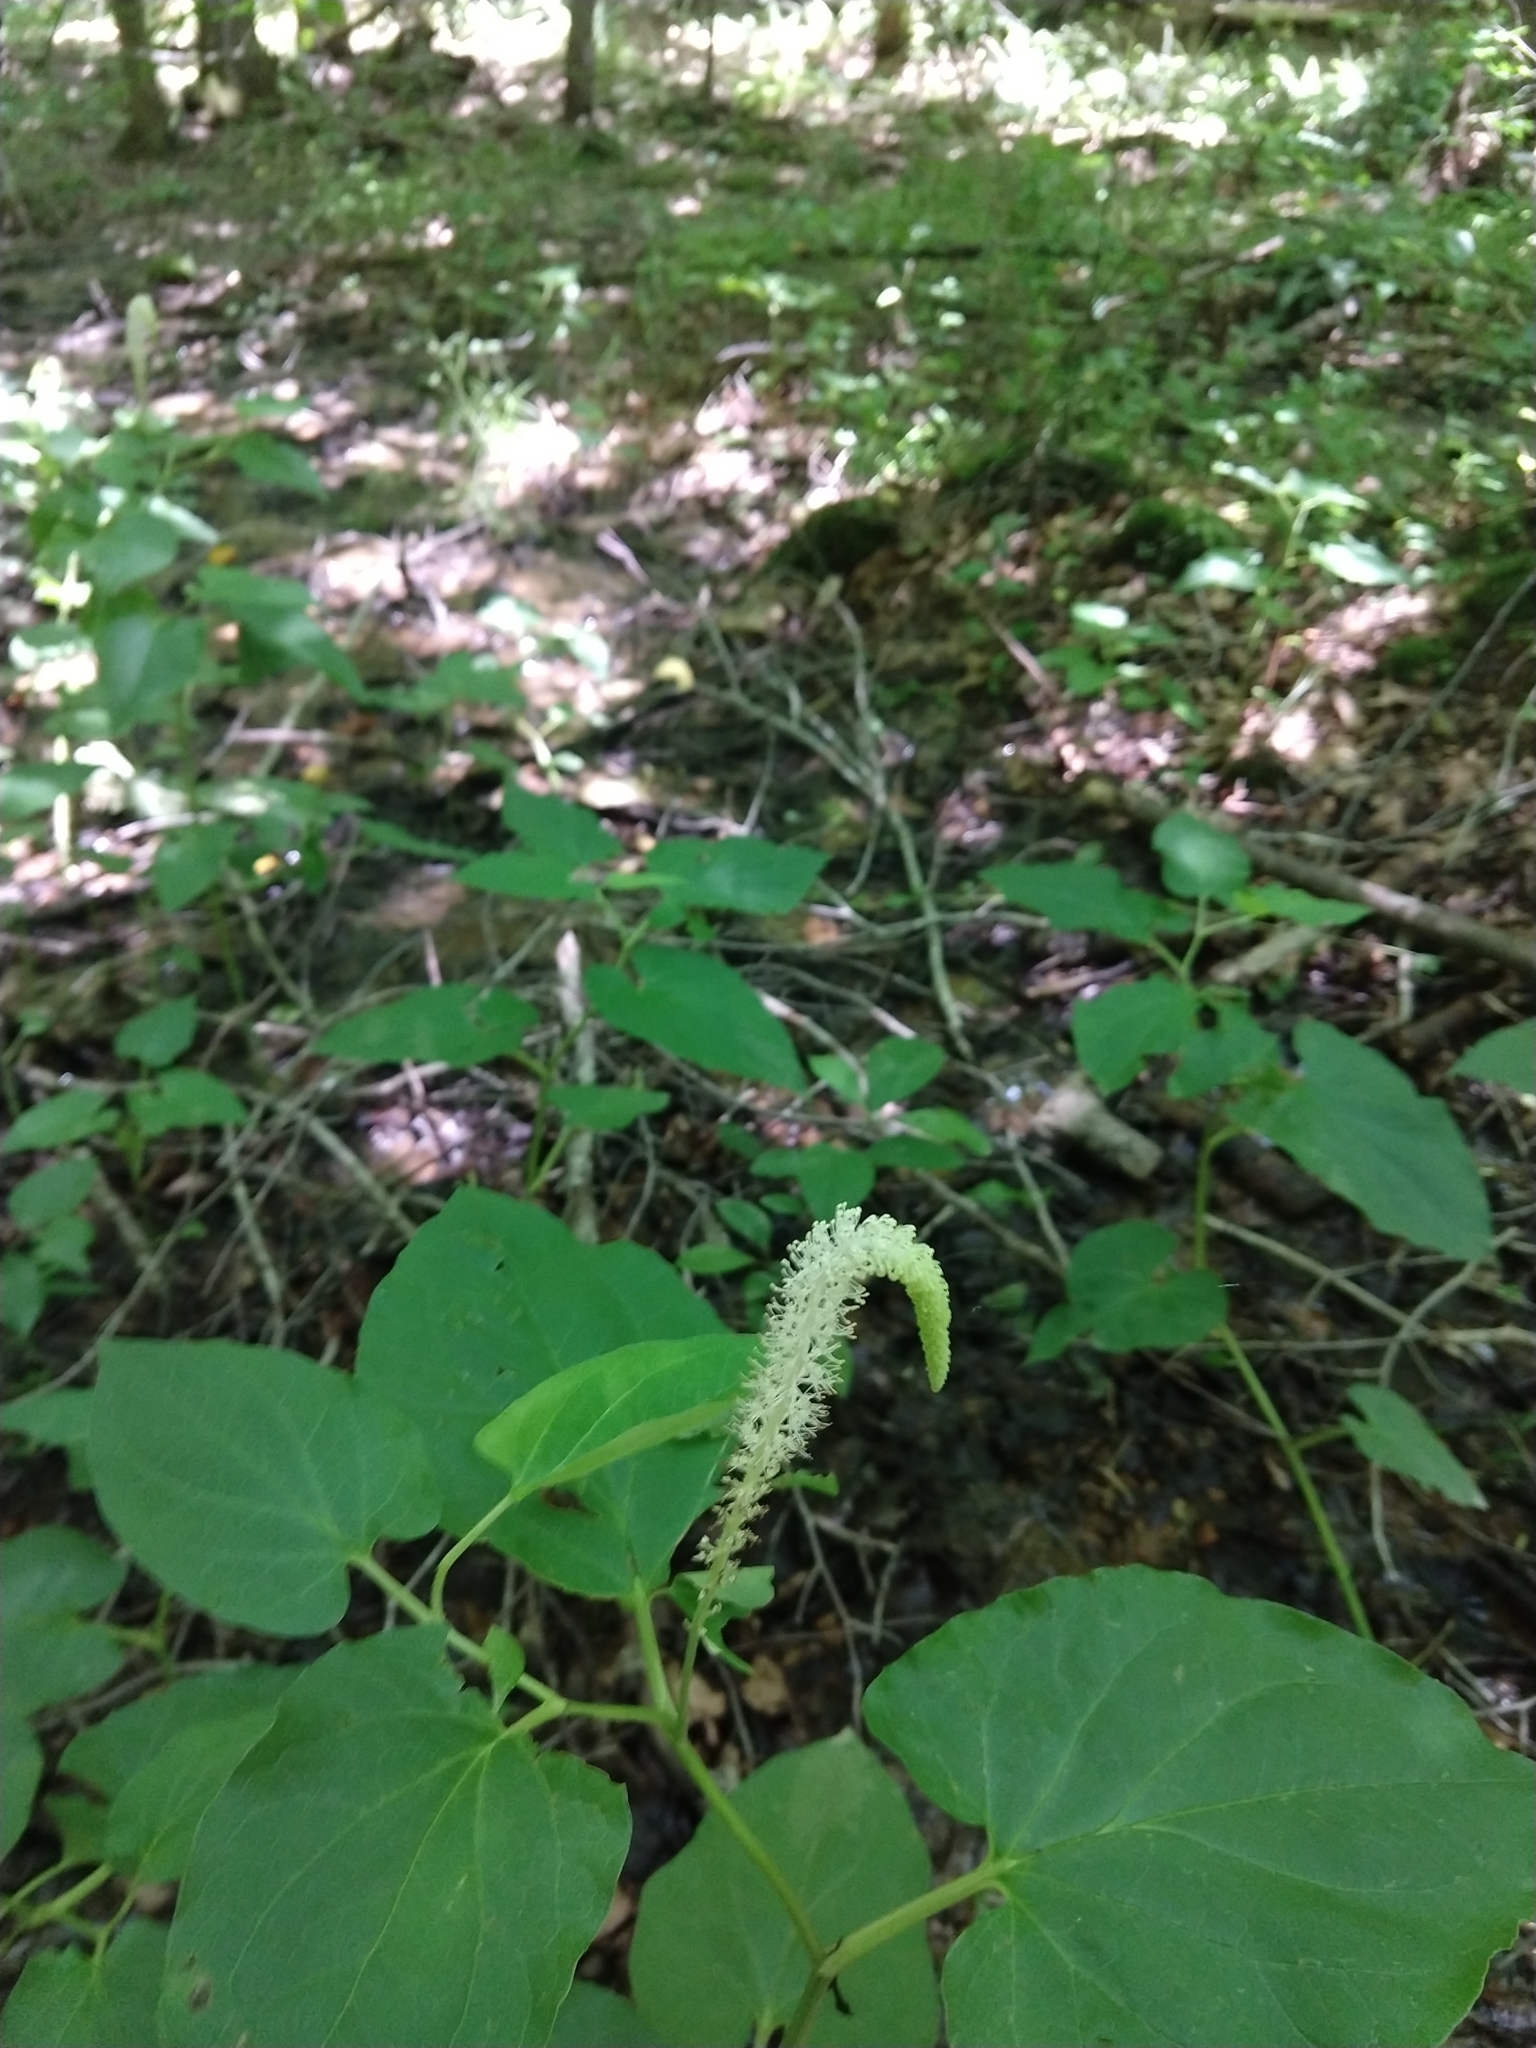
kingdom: Plantae
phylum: Tracheophyta
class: Magnoliopsida
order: Piperales
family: Saururaceae
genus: Saururus
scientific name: Saururus cernuus
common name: Lizard's-tail
